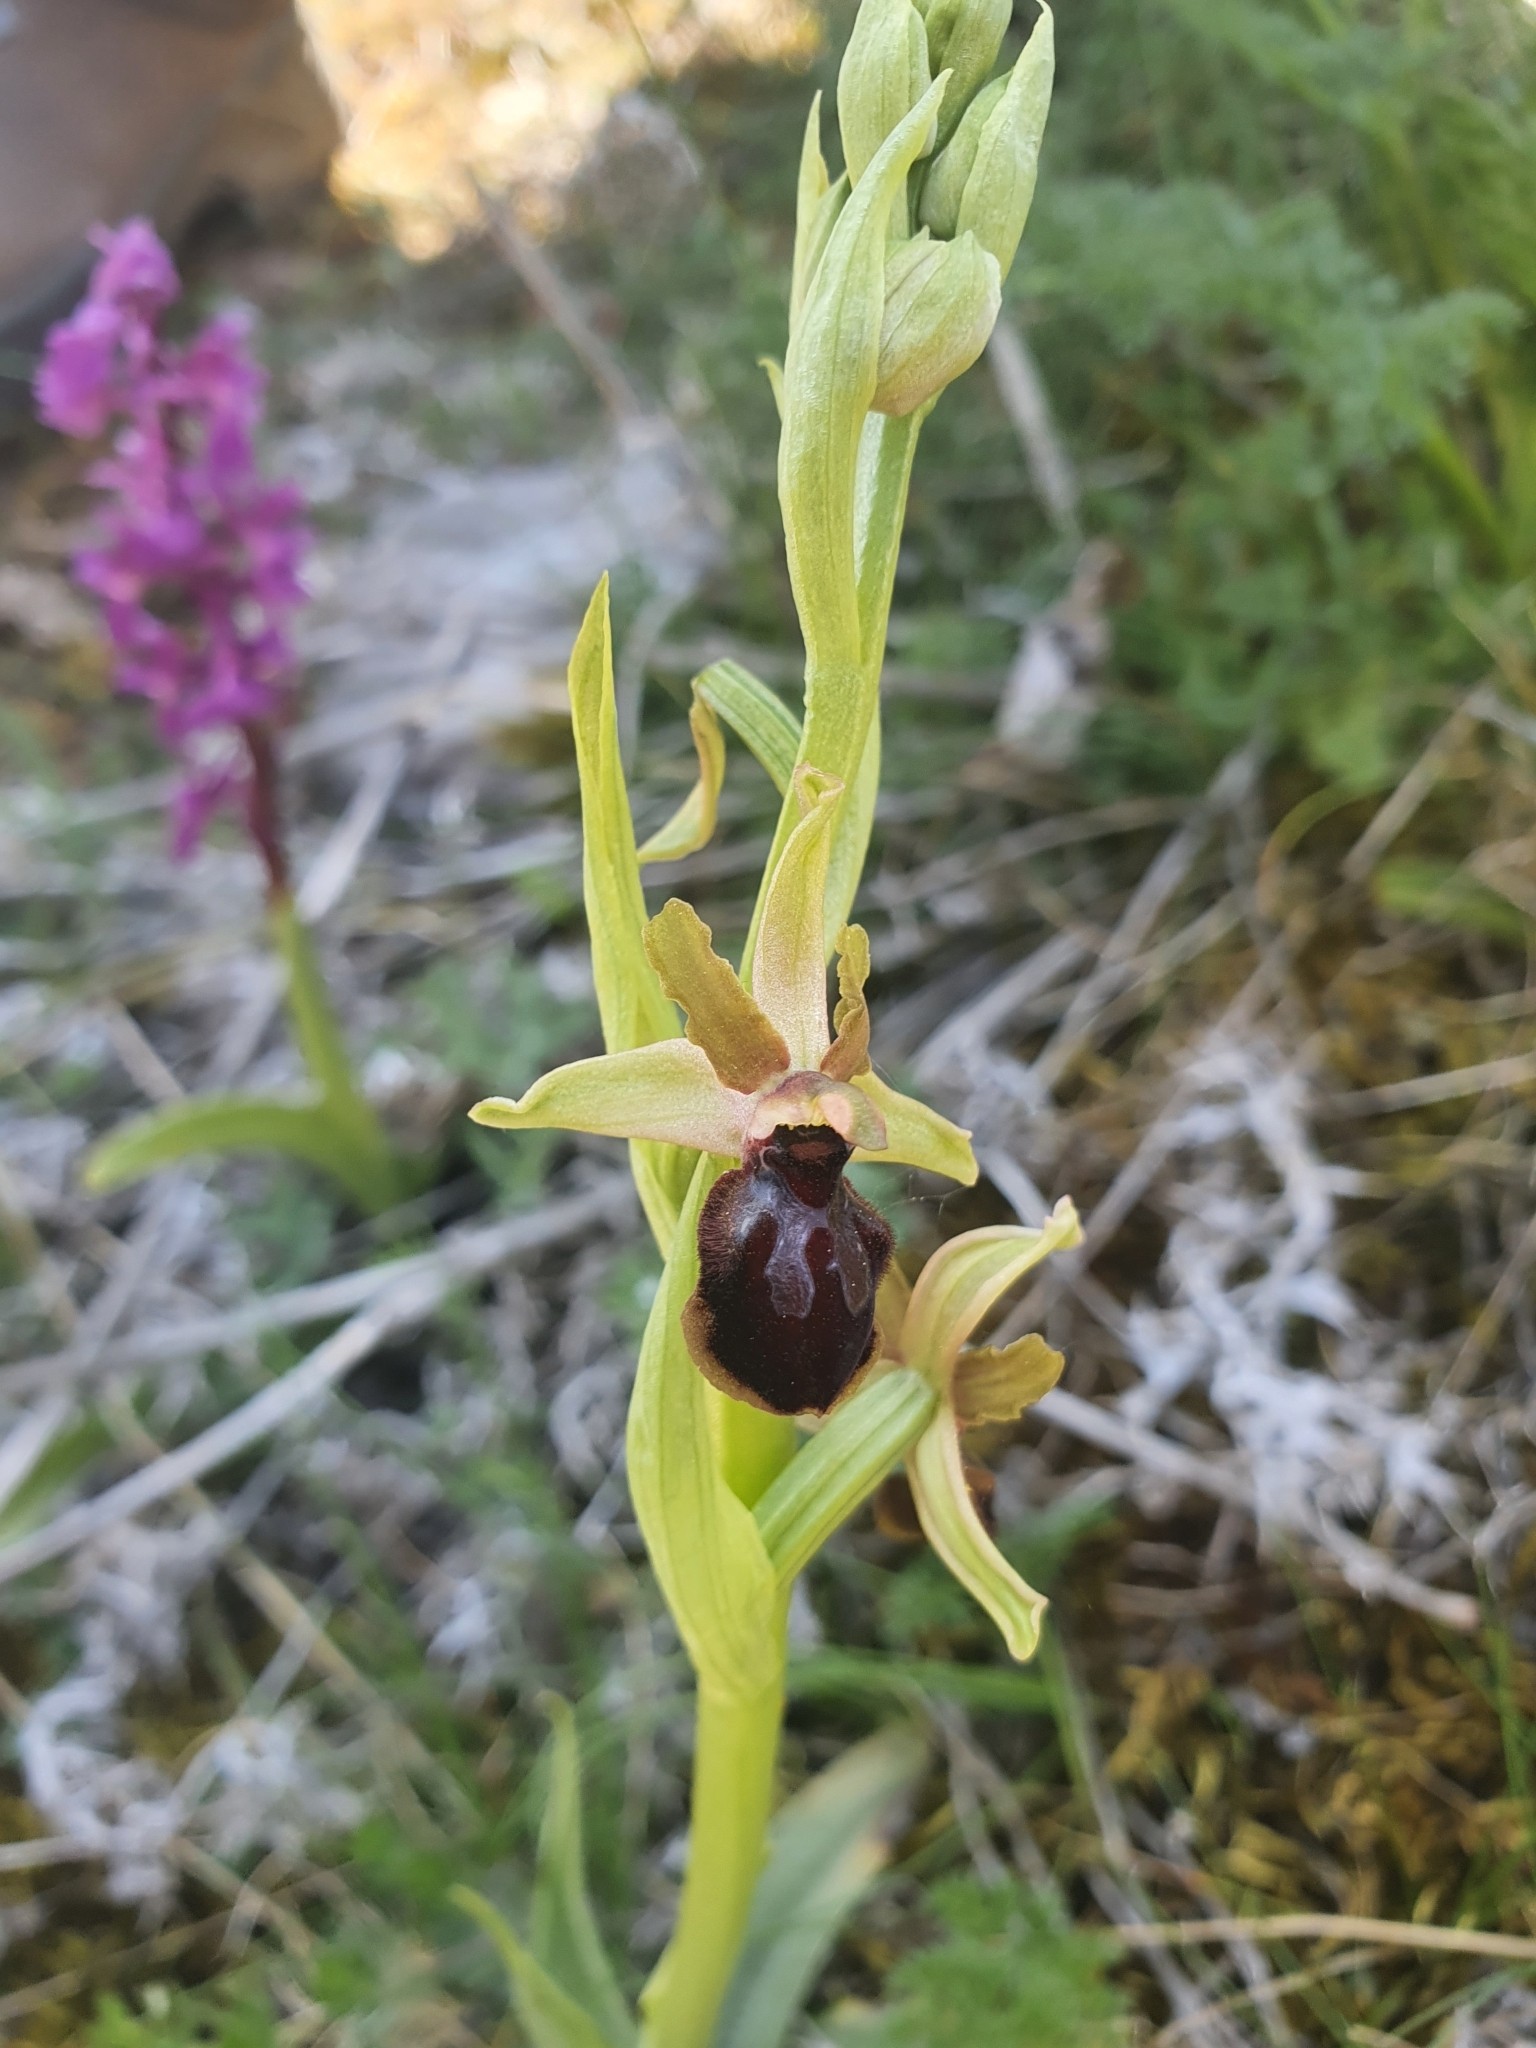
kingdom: Plantae
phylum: Tracheophyta
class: Liliopsida
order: Asparagales
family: Orchidaceae
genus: Ophrys
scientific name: Ophrys sphegodes
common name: Early spider-orchid
